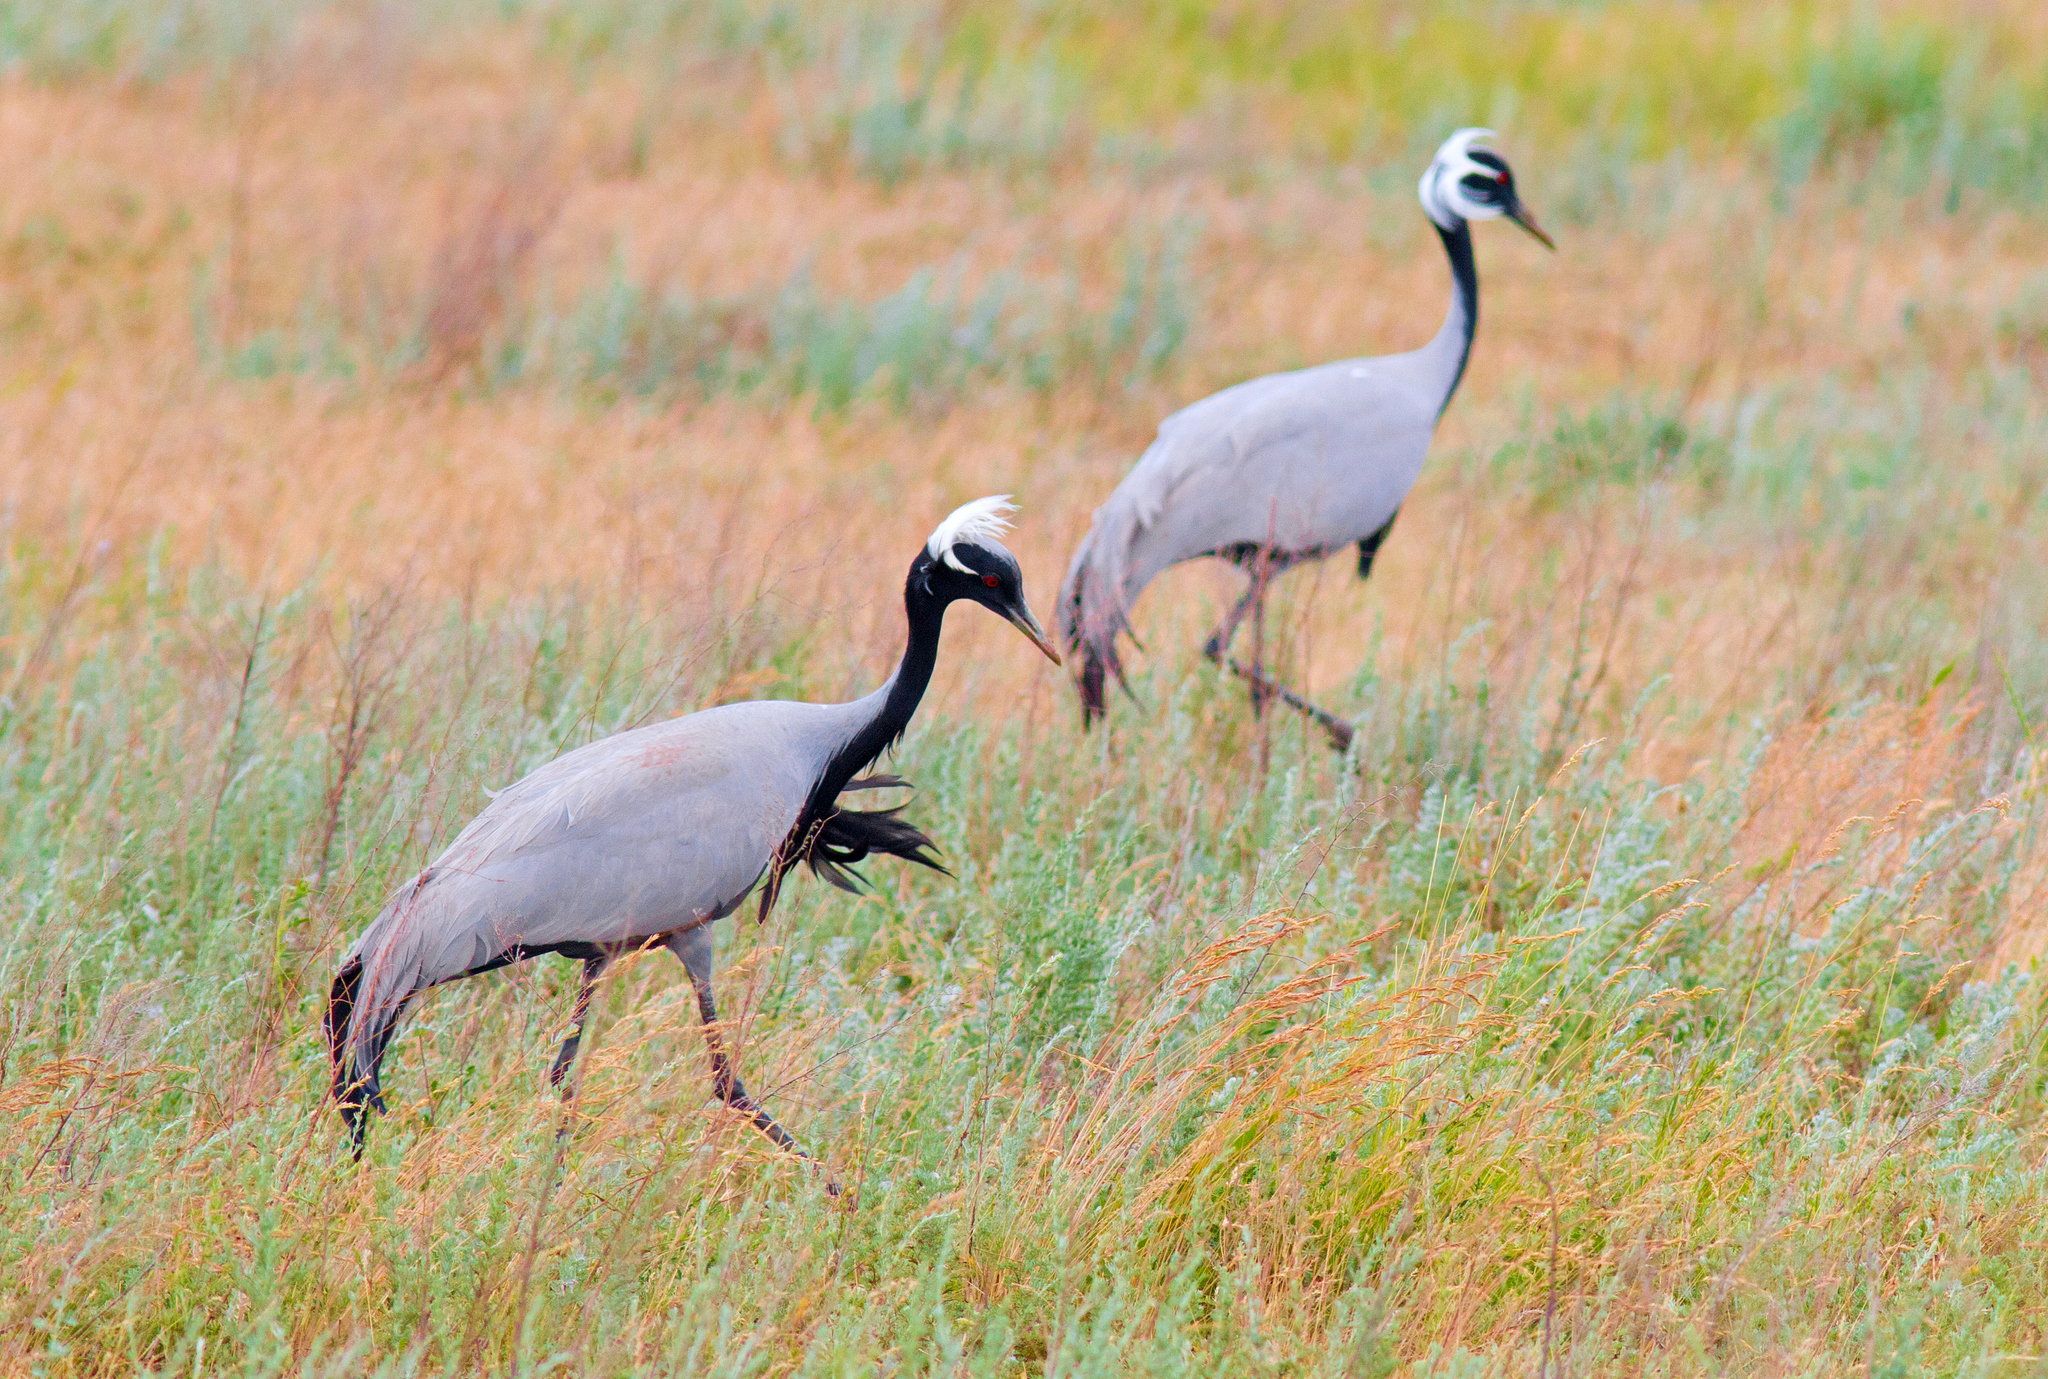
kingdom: Animalia
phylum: Chordata
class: Aves
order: Gruiformes
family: Gruidae
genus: Anthropoides
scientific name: Anthropoides virgo
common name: Demoiselle crane
